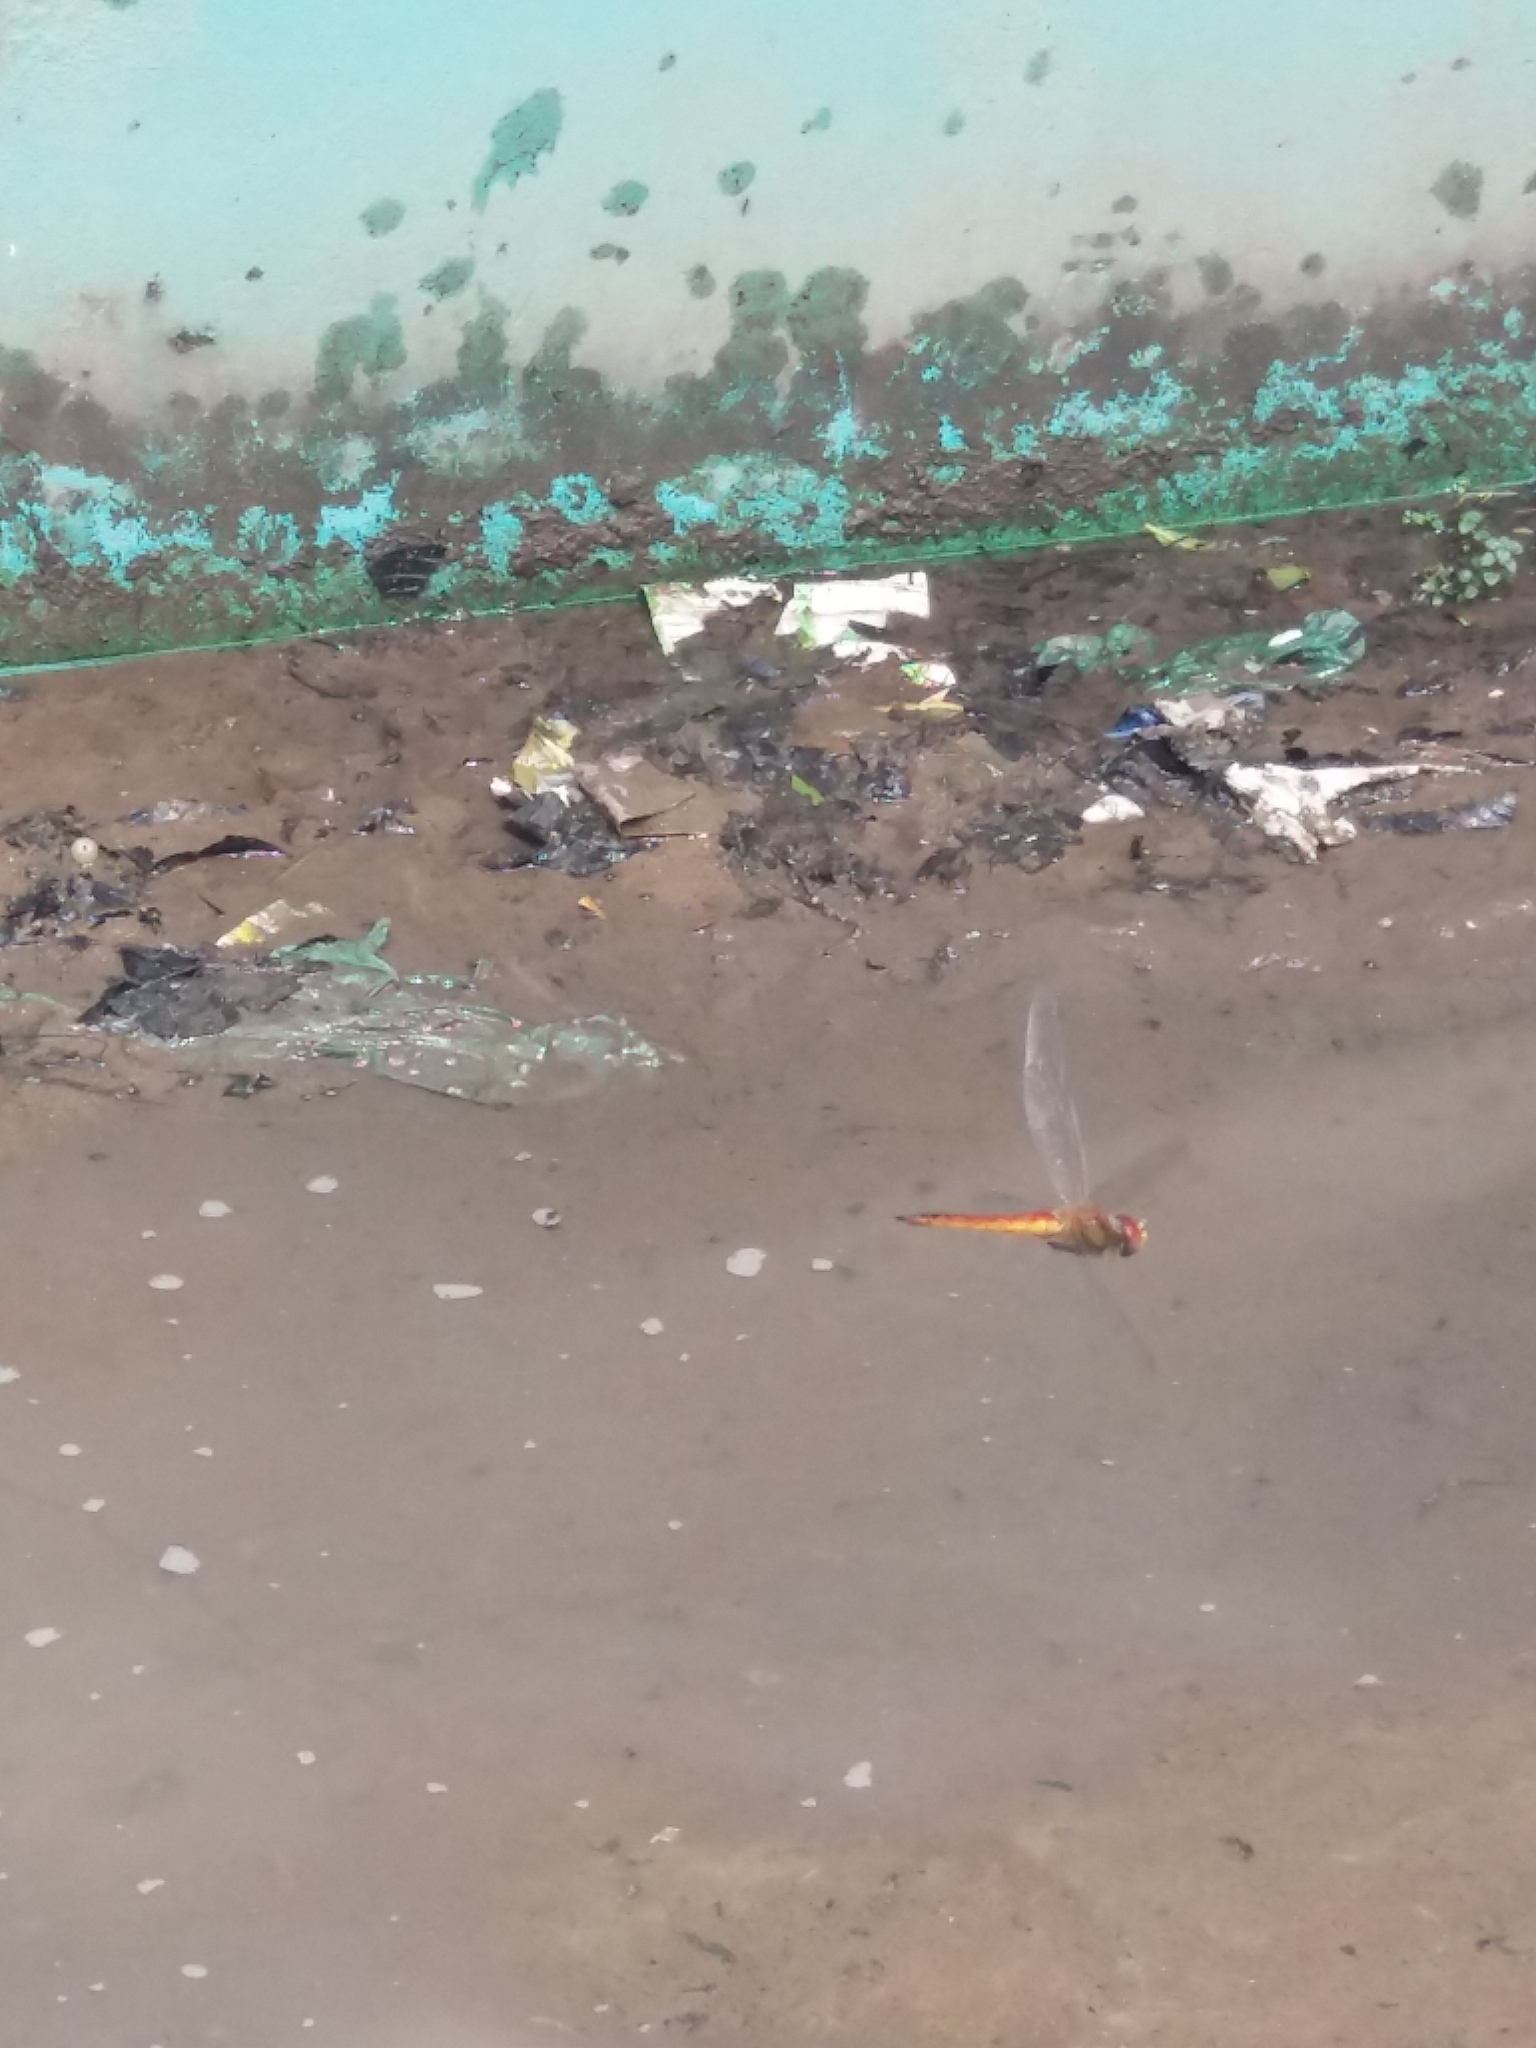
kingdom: Animalia
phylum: Arthropoda
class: Insecta
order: Odonata
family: Libellulidae
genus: Pantala
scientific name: Pantala flavescens
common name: Wandering glider
